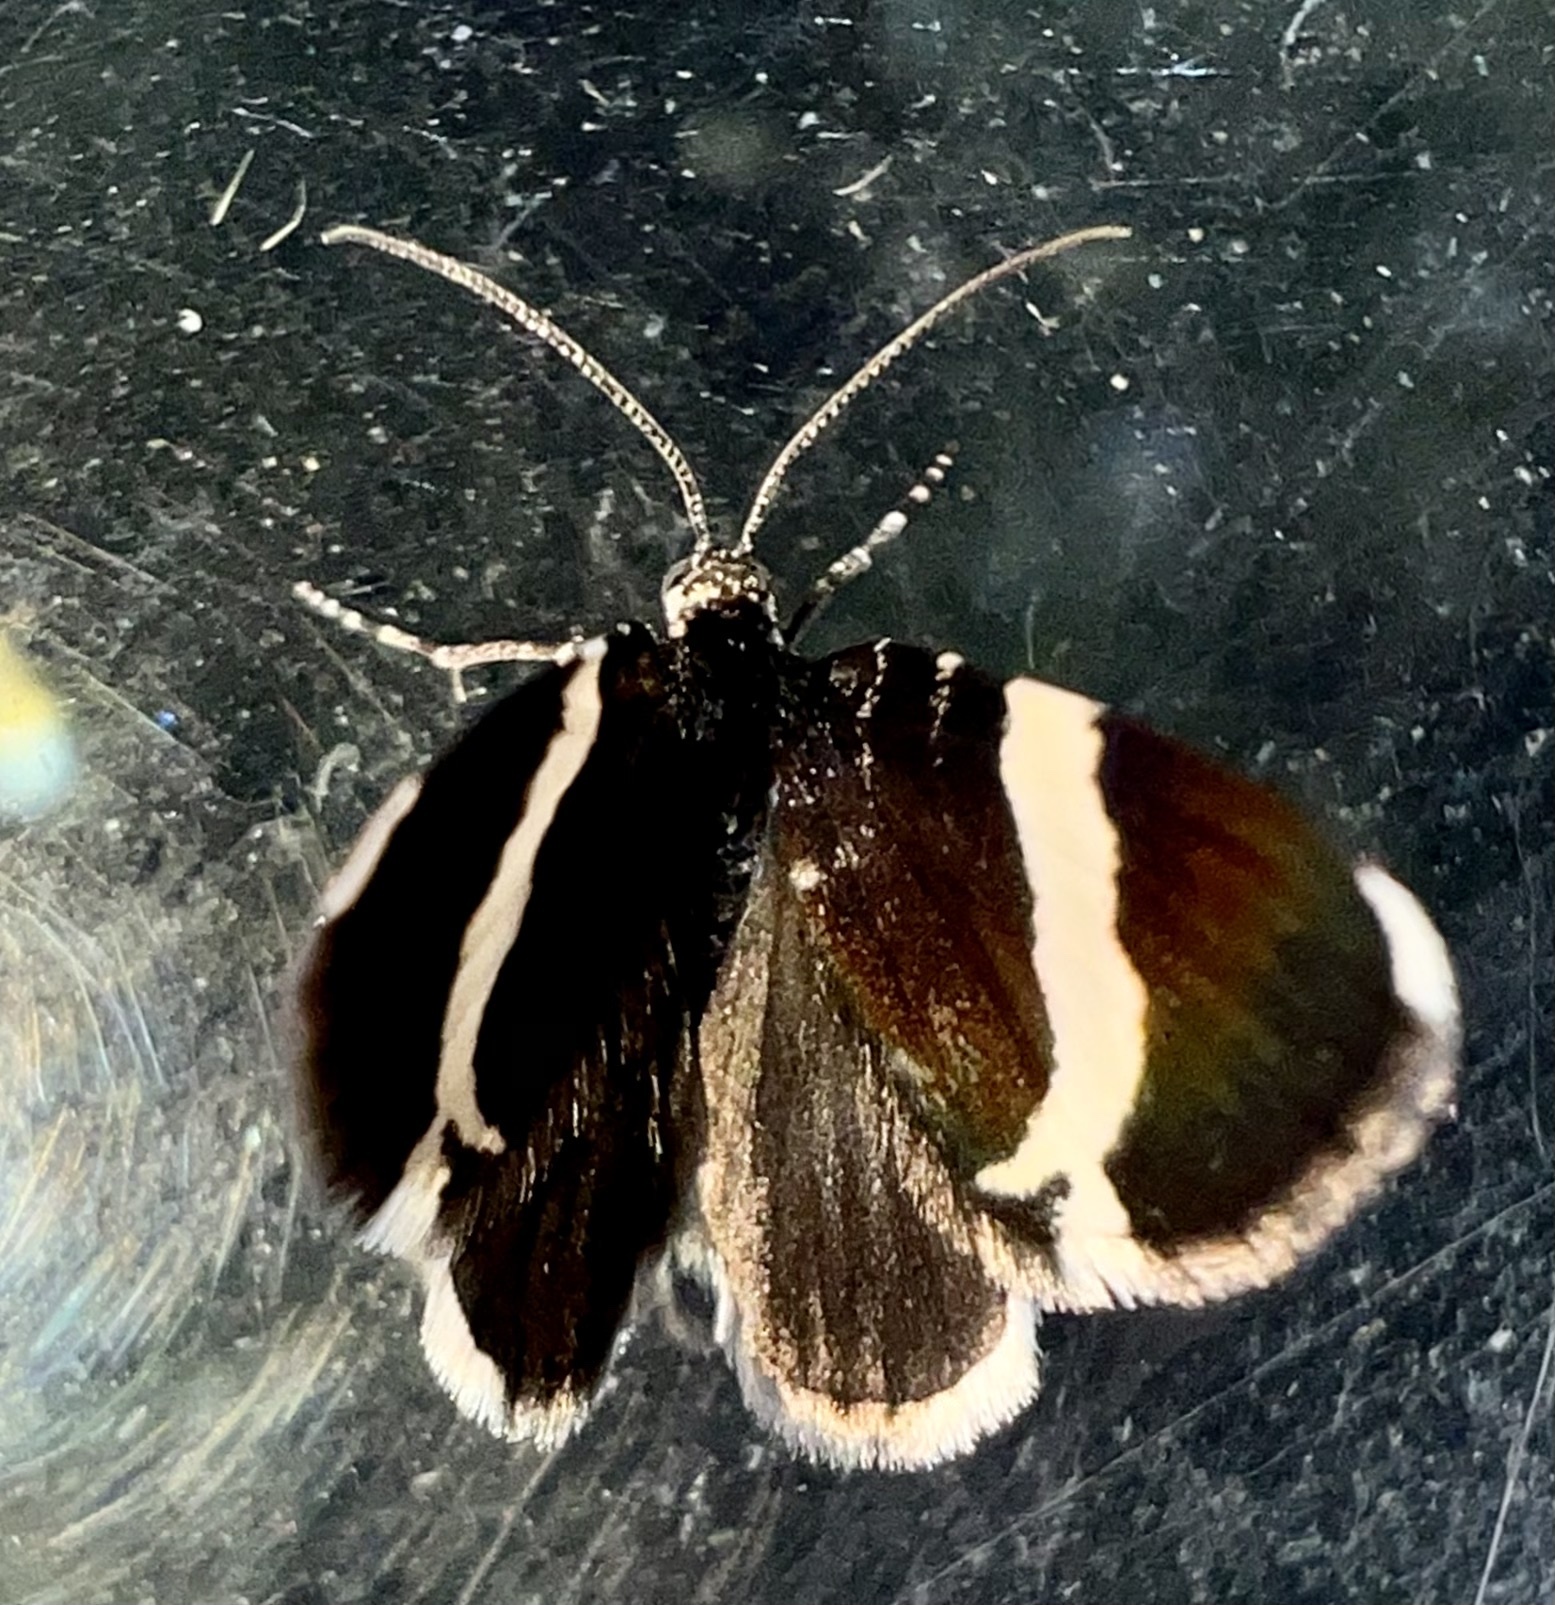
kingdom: Animalia
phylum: Arthropoda
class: Insecta
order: Lepidoptera
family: Geometridae
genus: Trichodezia
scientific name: Trichodezia albovittata
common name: White striped black
